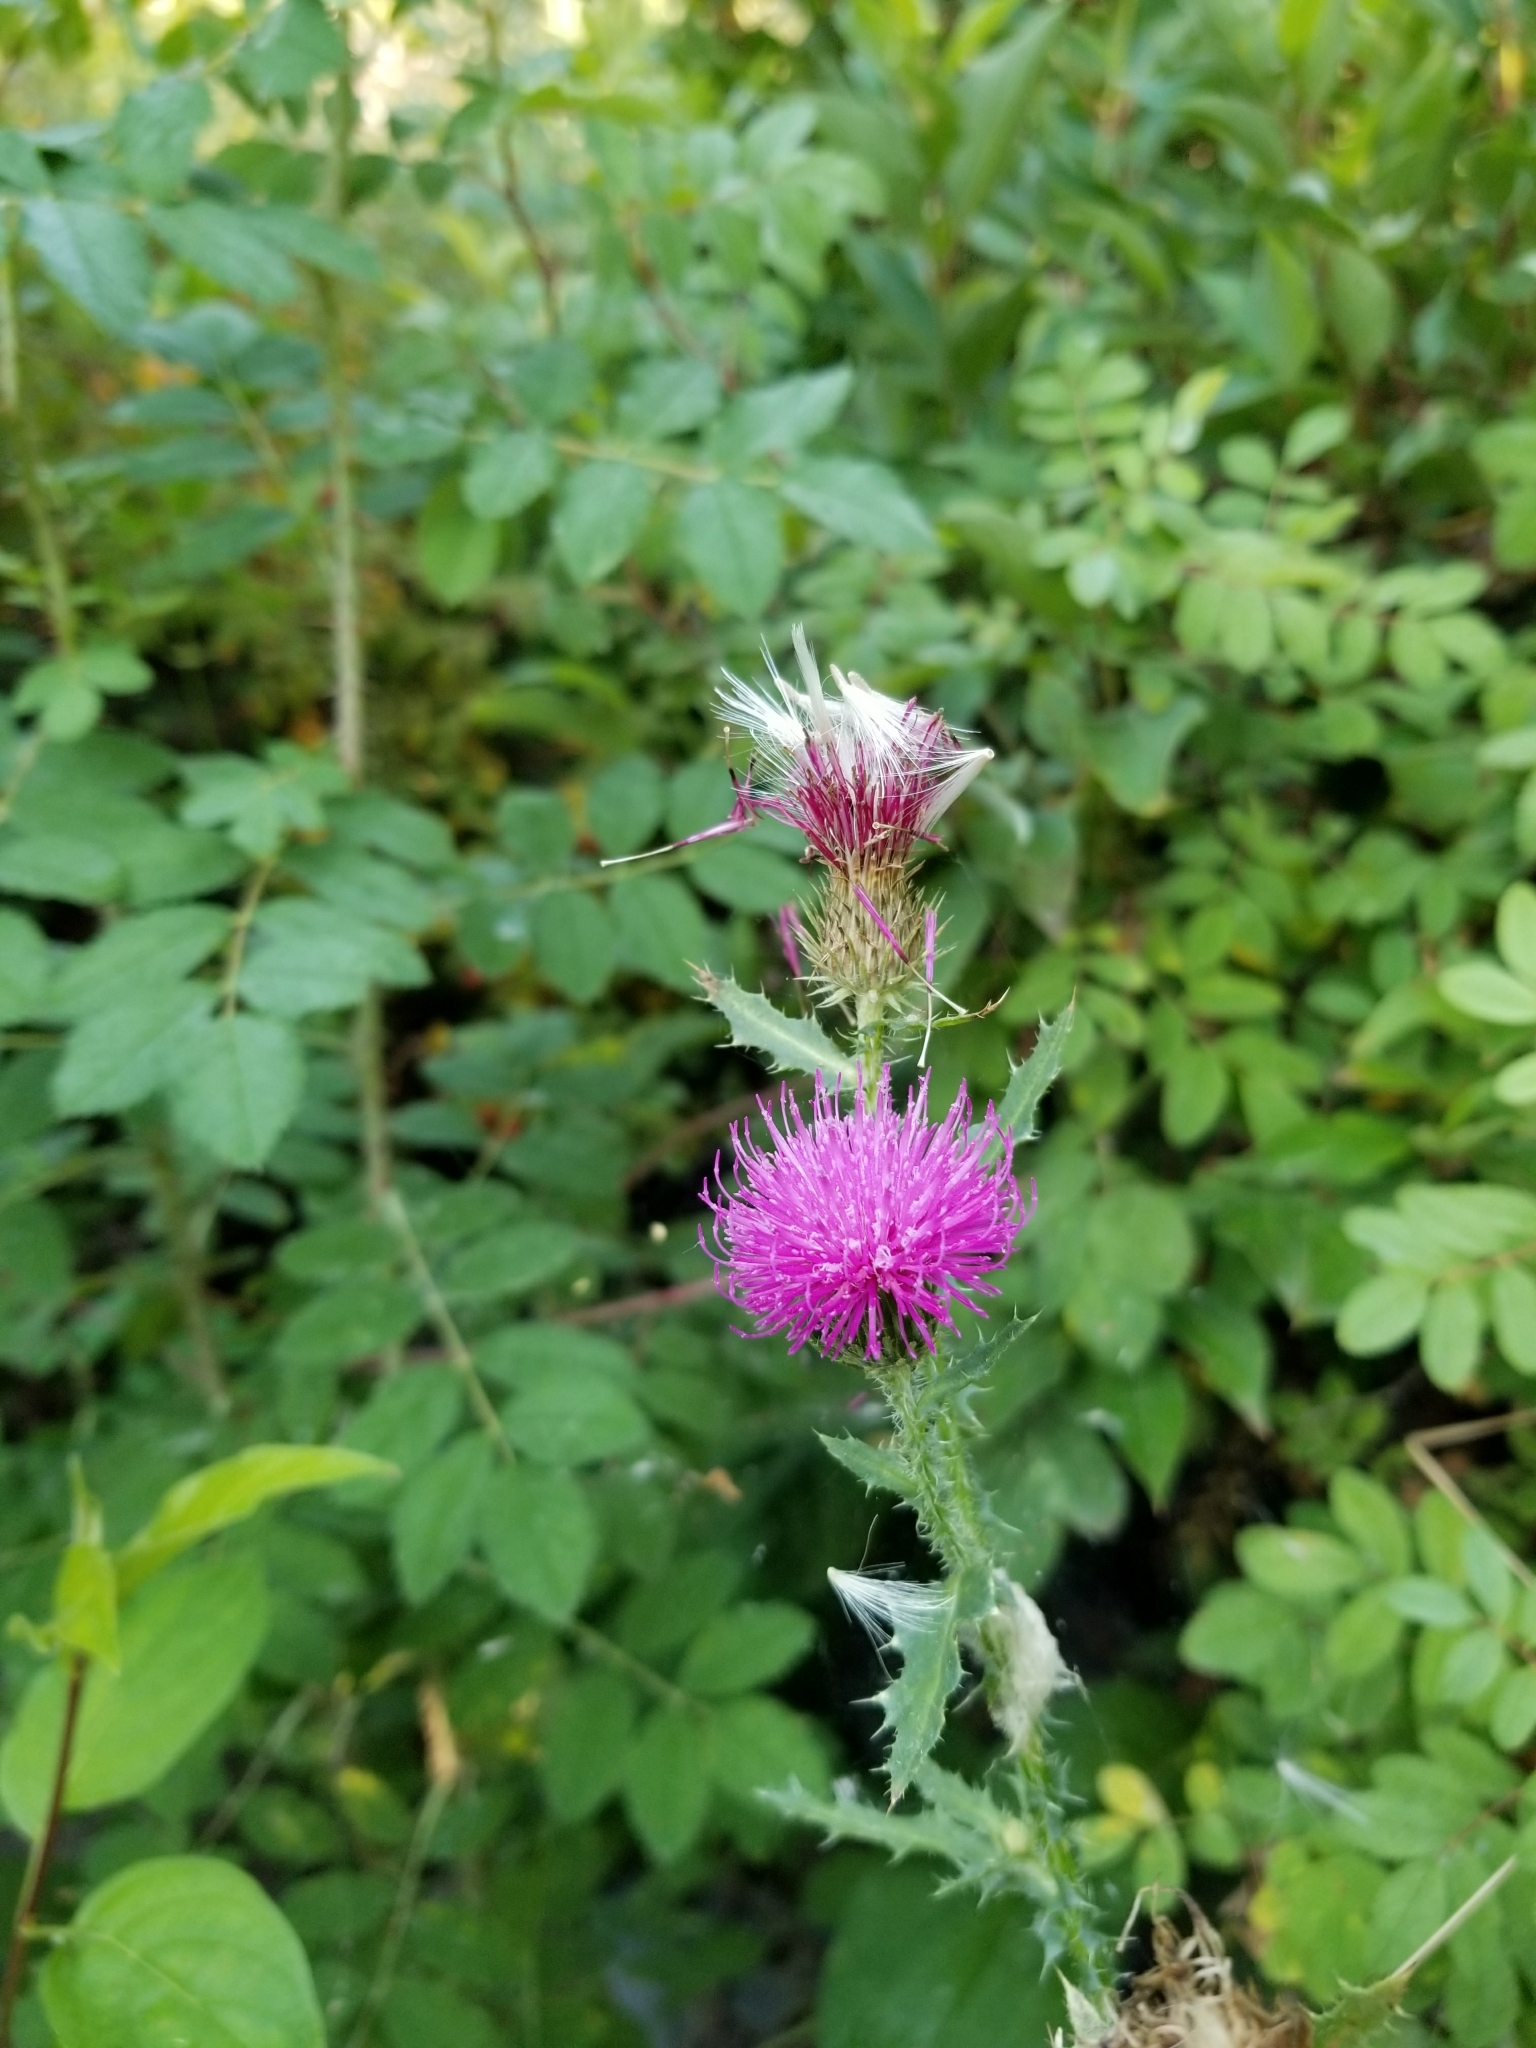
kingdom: Plantae
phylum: Tracheophyta
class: Magnoliopsida
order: Asterales
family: Asteraceae
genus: Cirsium
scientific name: Cirsium arvense
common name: Creeping thistle
